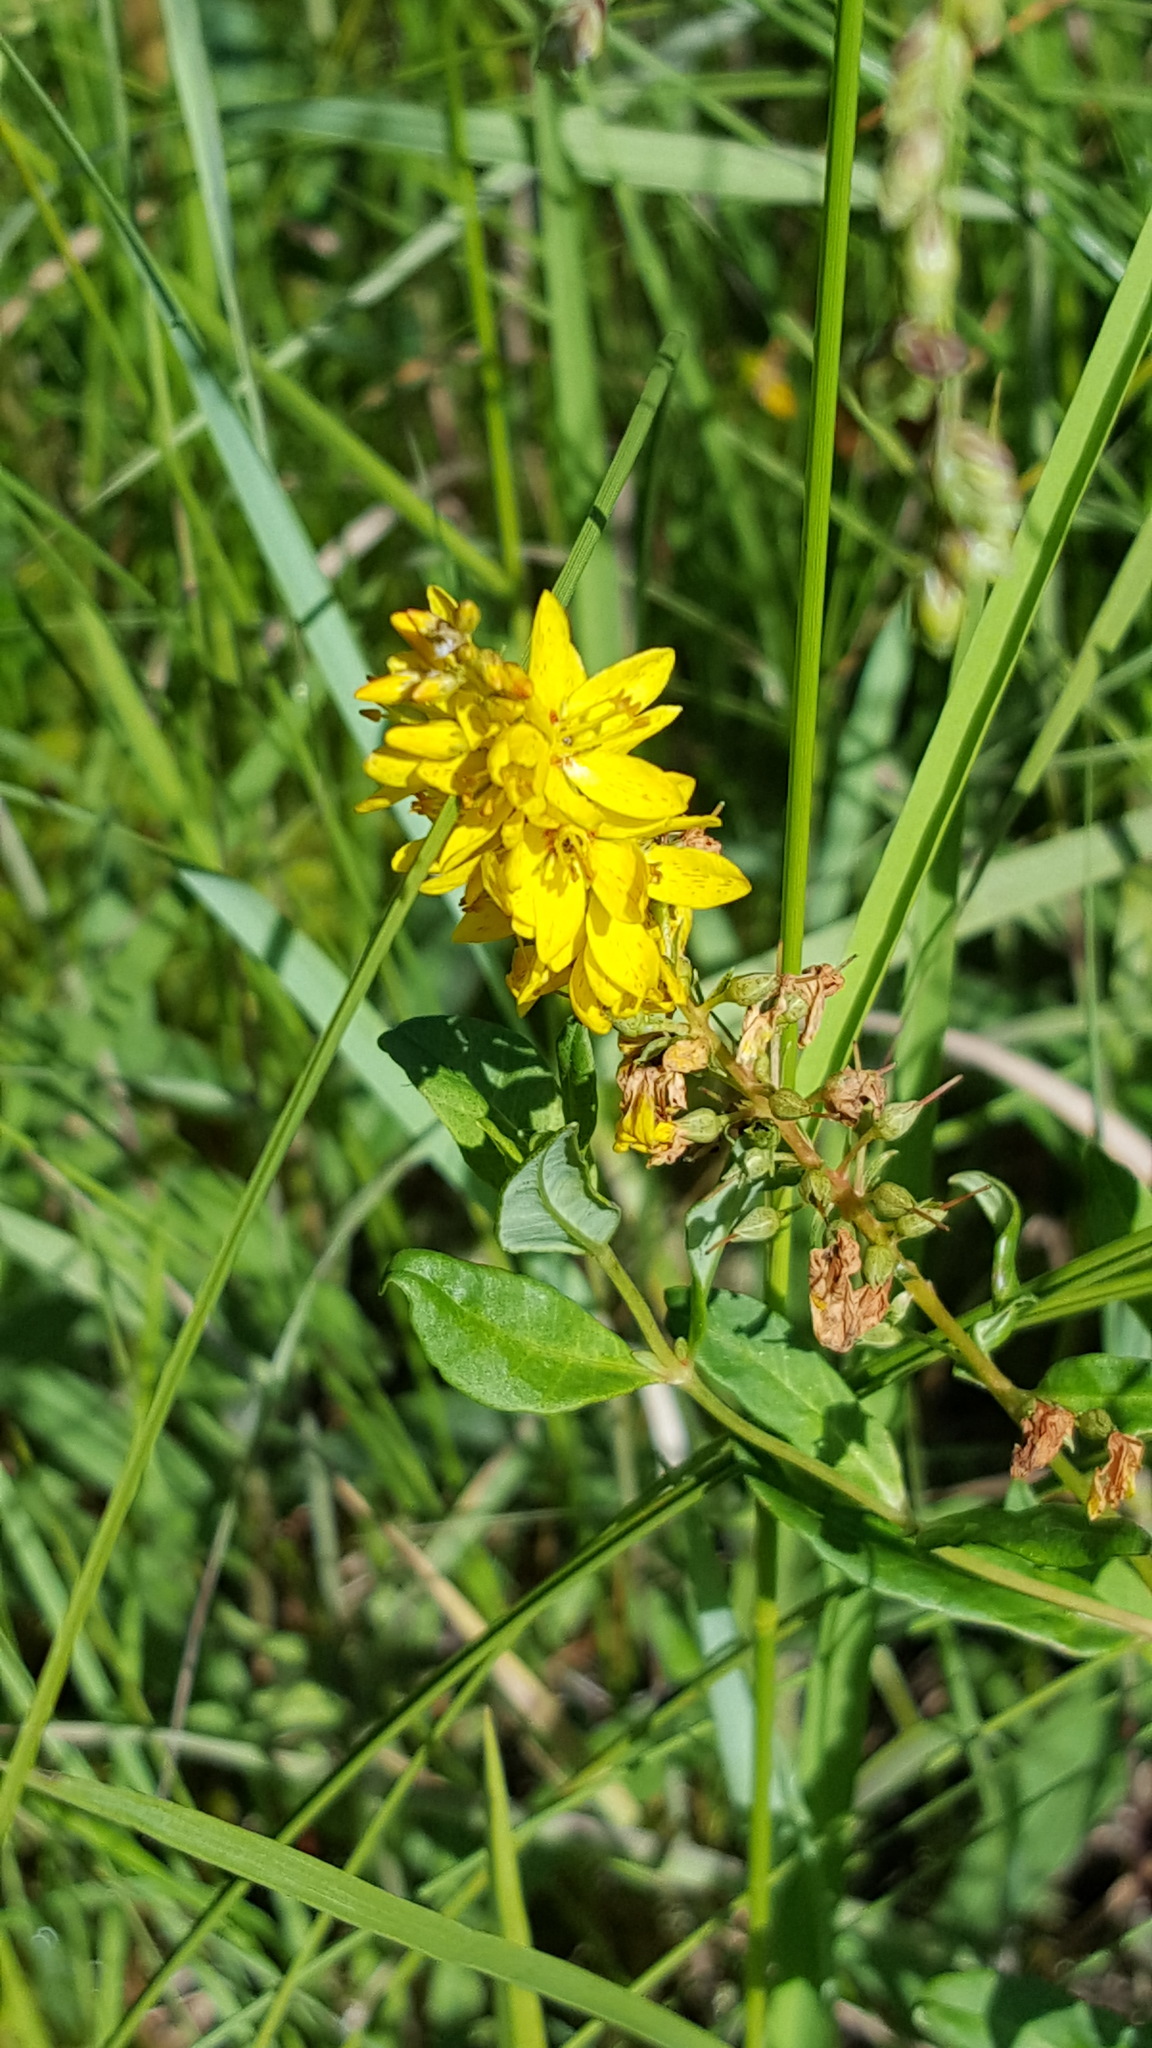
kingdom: Plantae
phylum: Tracheophyta
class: Magnoliopsida
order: Ericales
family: Primulaceae
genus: Lysimachia
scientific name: Lysimachia terrestris
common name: Lake loosestrife
